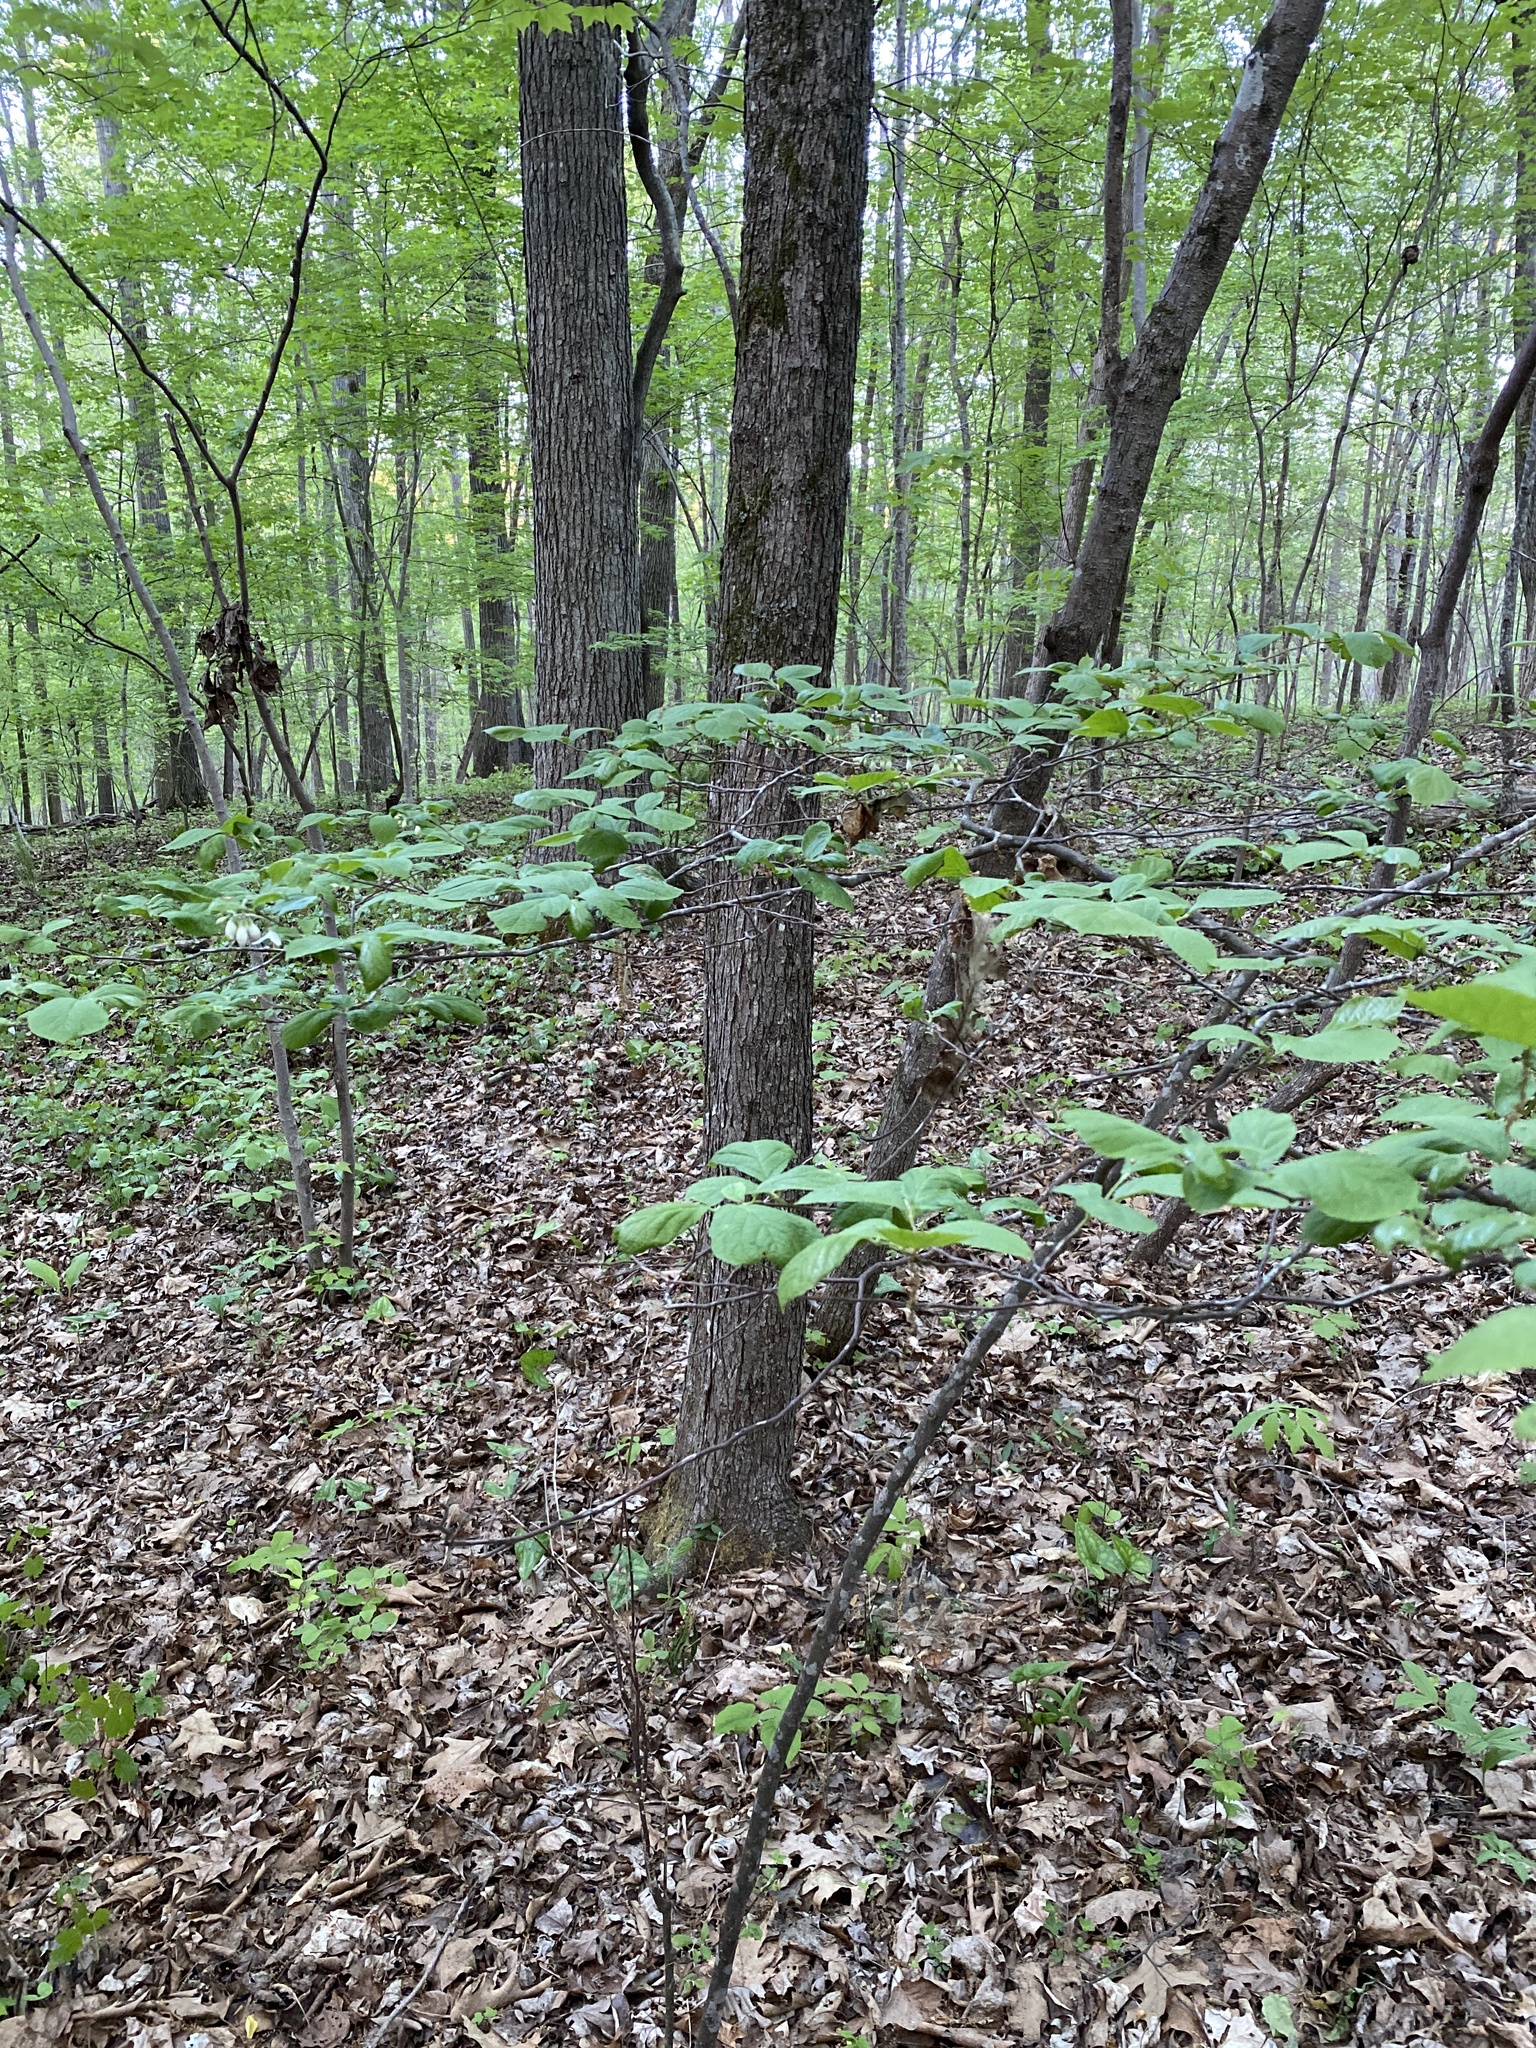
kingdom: Plantae
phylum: Tracheophyta
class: Magnoliopsida
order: Ericales
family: Styracaceae
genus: Styrax
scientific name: Styrax grandifolius
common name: Big-leaf snowbell
